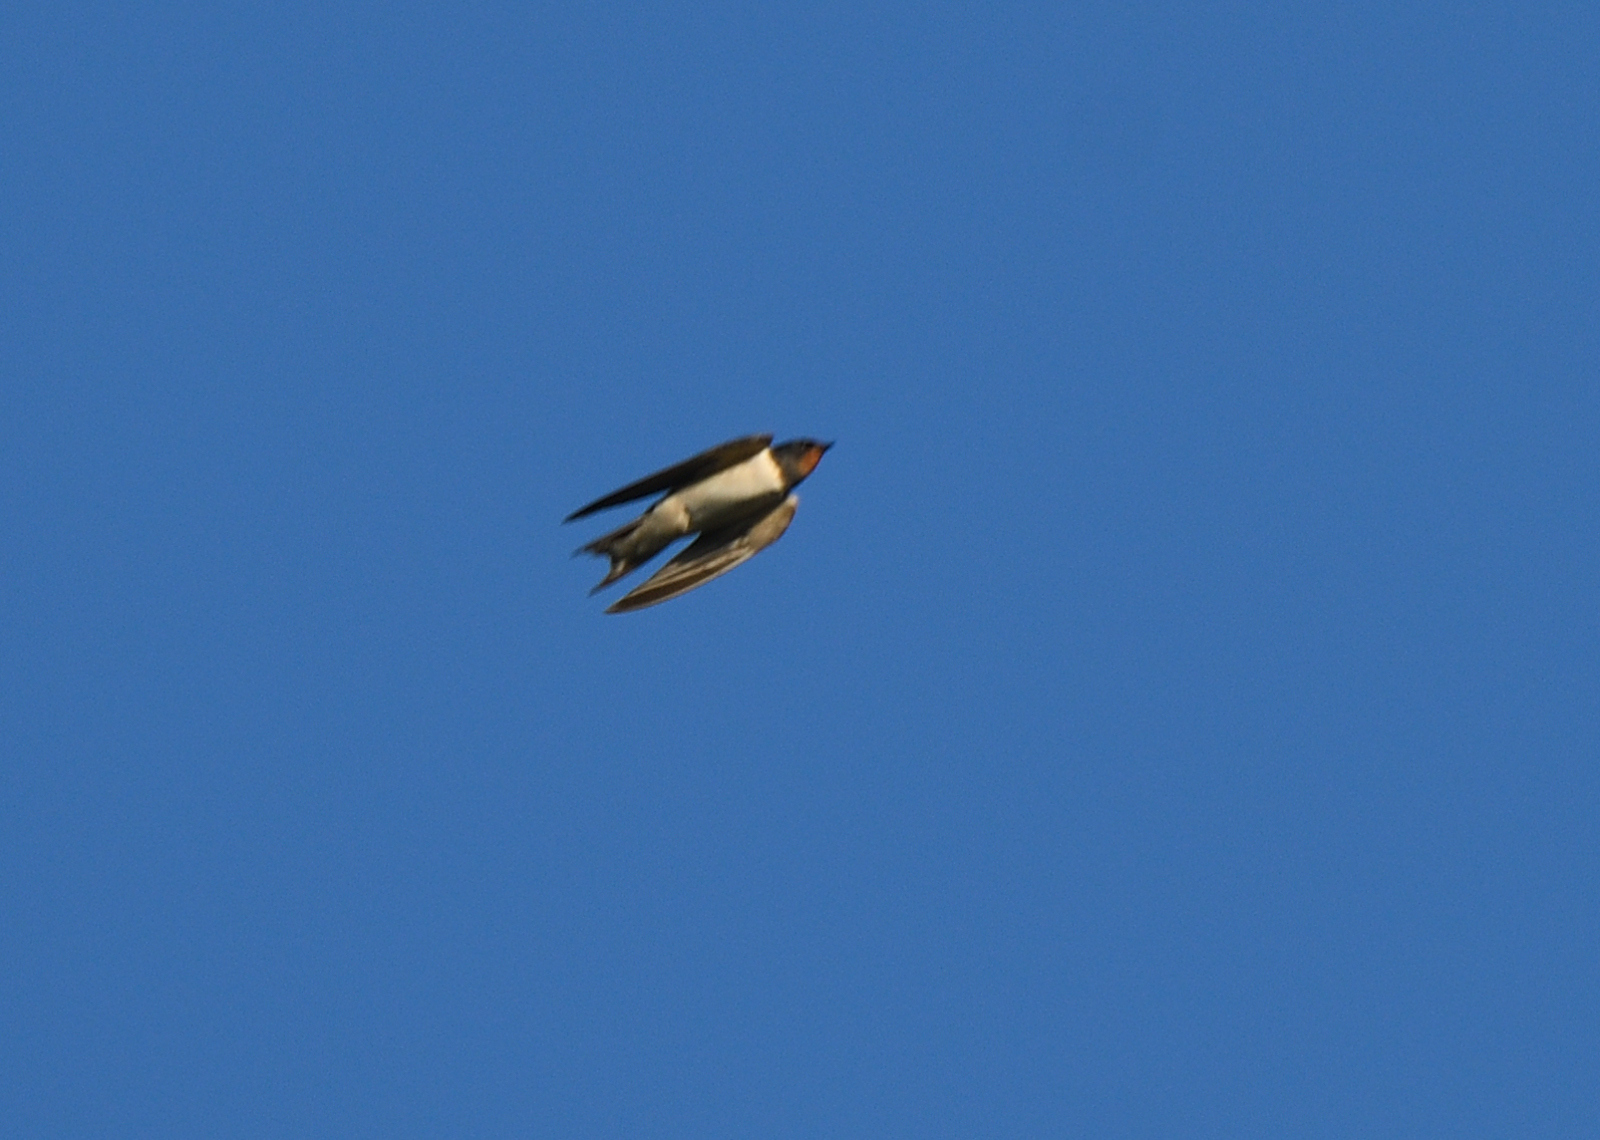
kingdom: Animalia
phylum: Chordata
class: Aves
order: Passeriformes
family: Hirundinidae
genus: Hirundo
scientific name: Hirundo rustica
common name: Barn swallow
